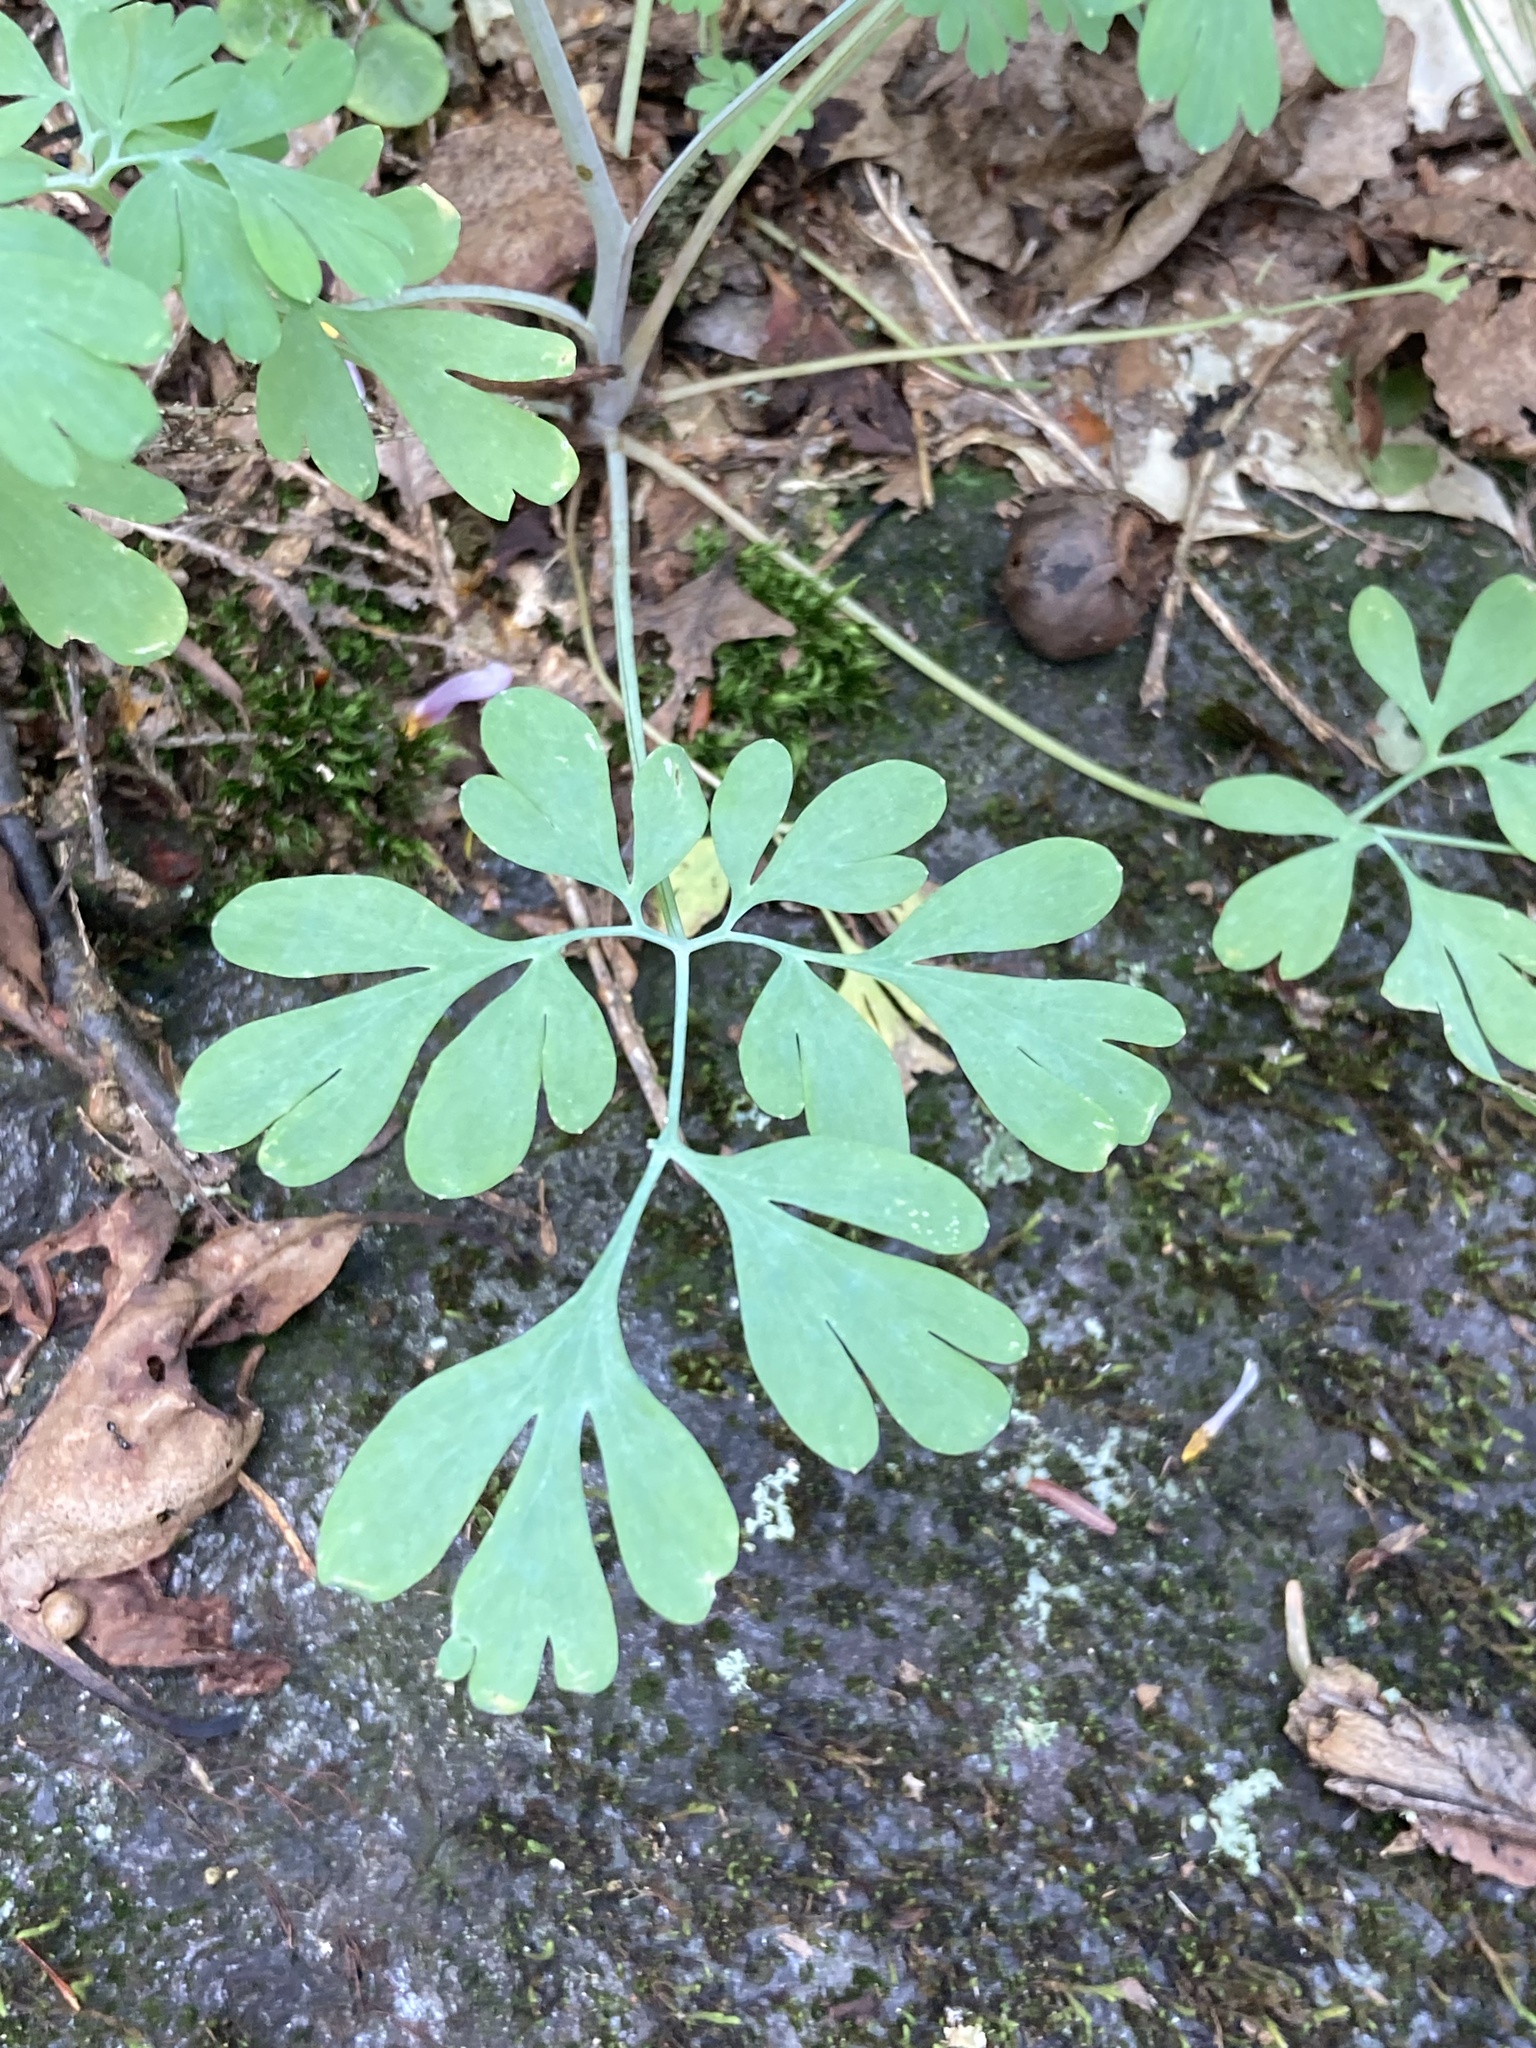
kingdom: Plantae
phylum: Tracheophyta
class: Magnoliopsida
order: Ranunculales
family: Papaveraceae
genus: Capnoides
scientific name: Capnoides sempervirens
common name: Rock harlequin
